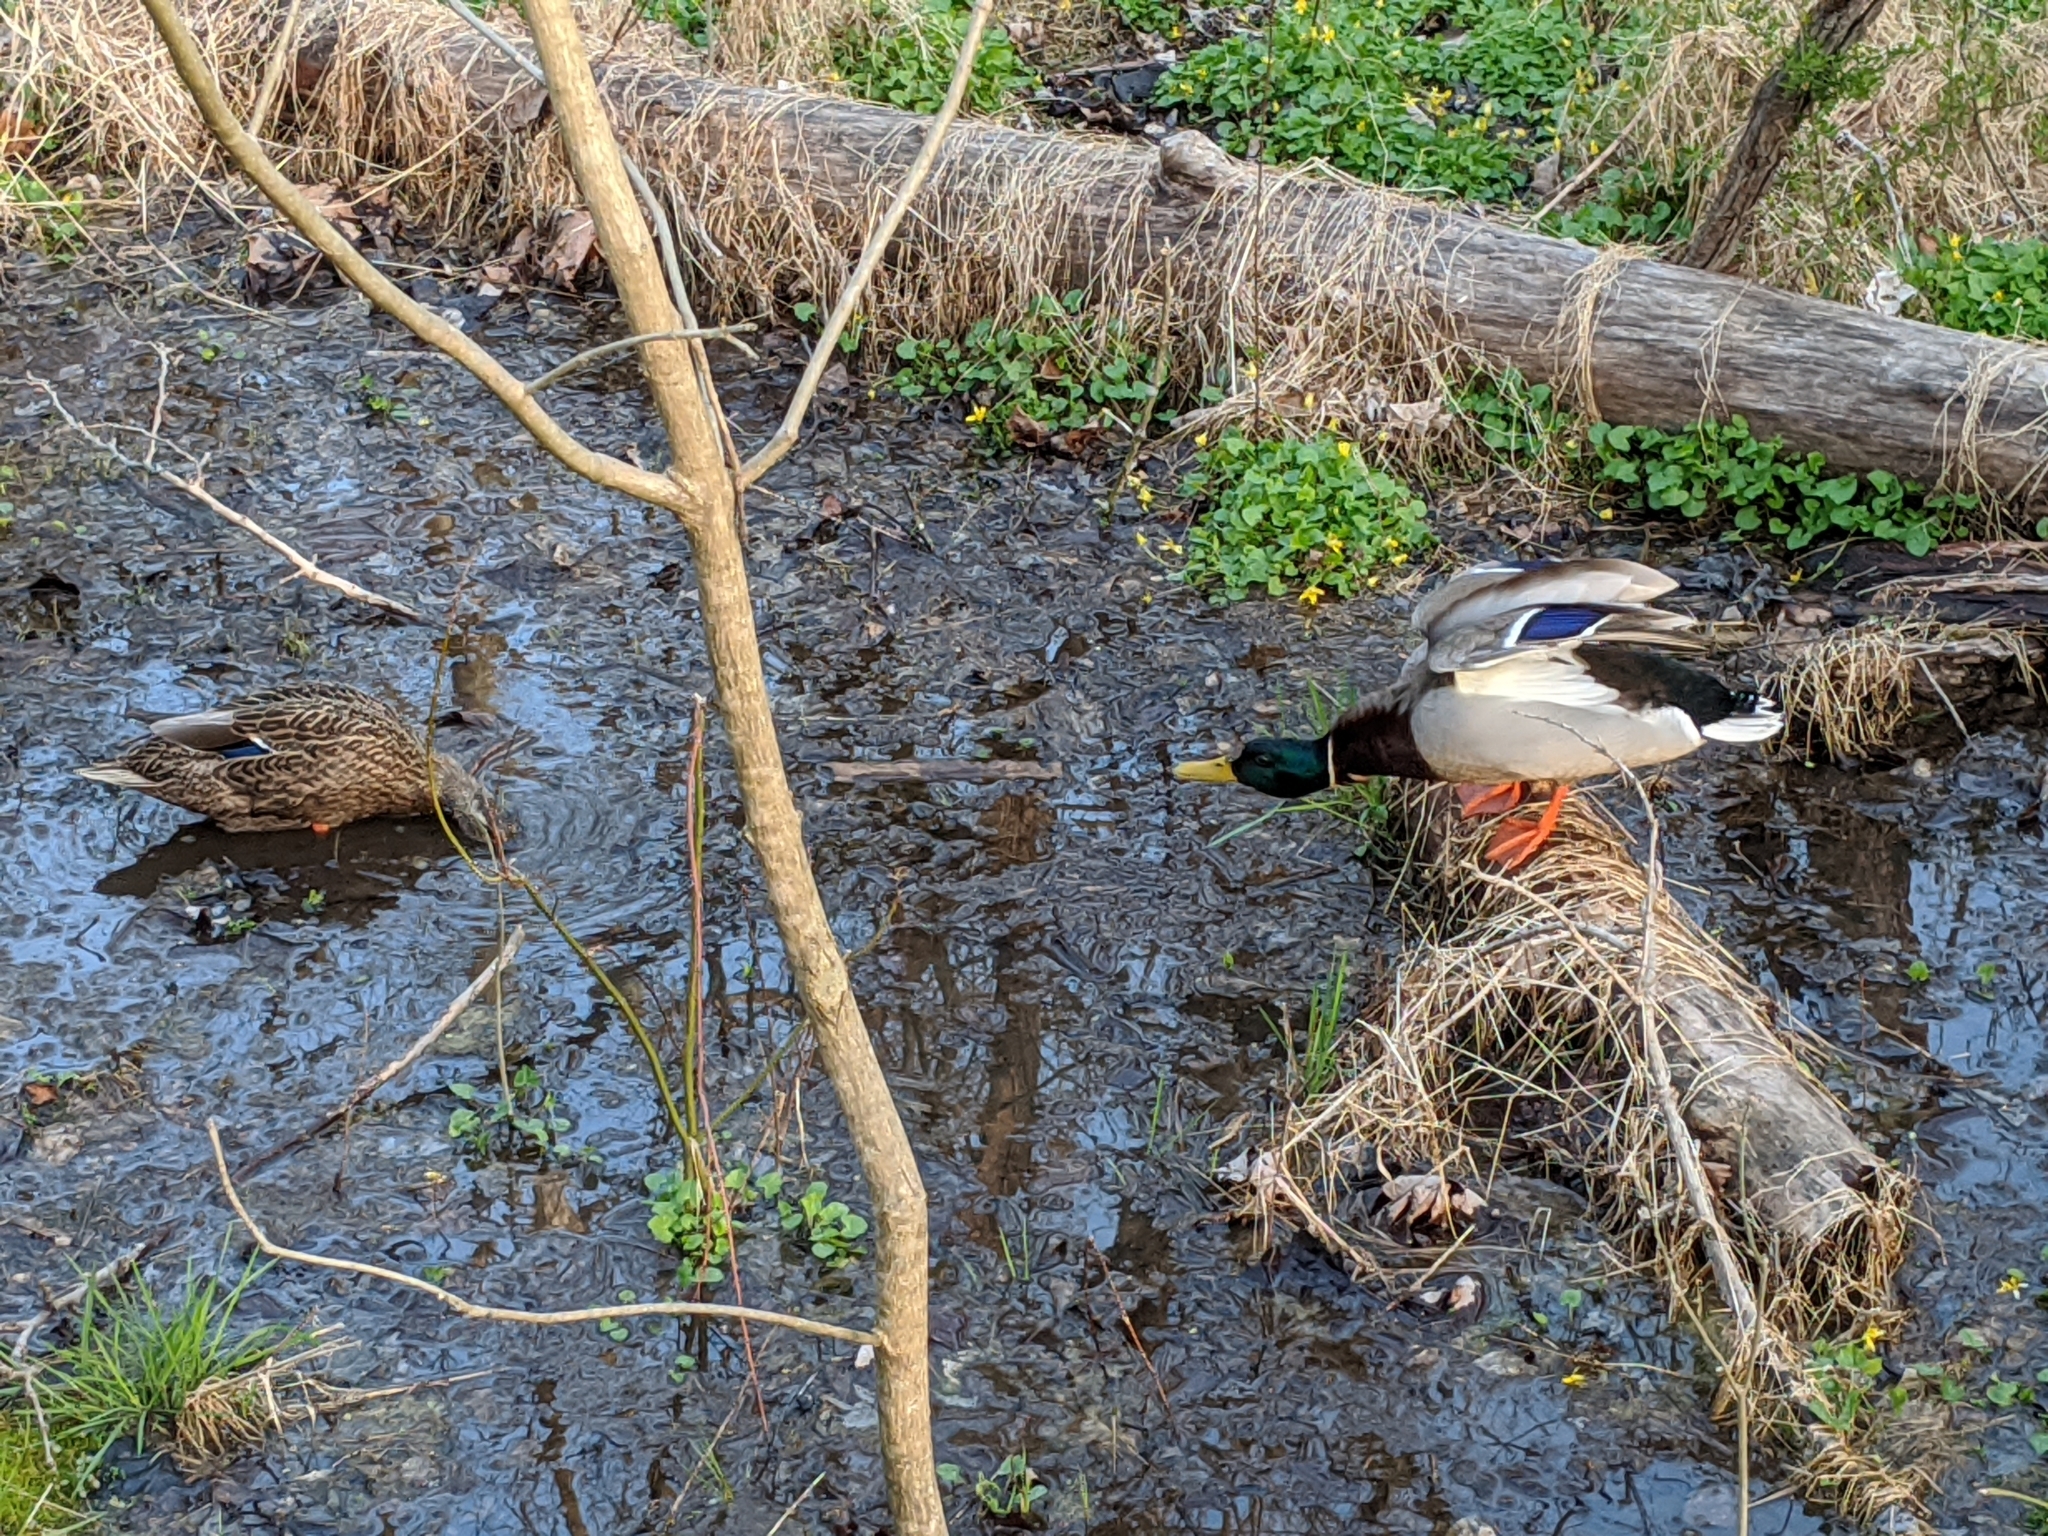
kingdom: Animalia
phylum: Chordata
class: Aves
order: Anseriformes
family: Anatidae
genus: Anas
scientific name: Anas platyrhynchos
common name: Mallard
